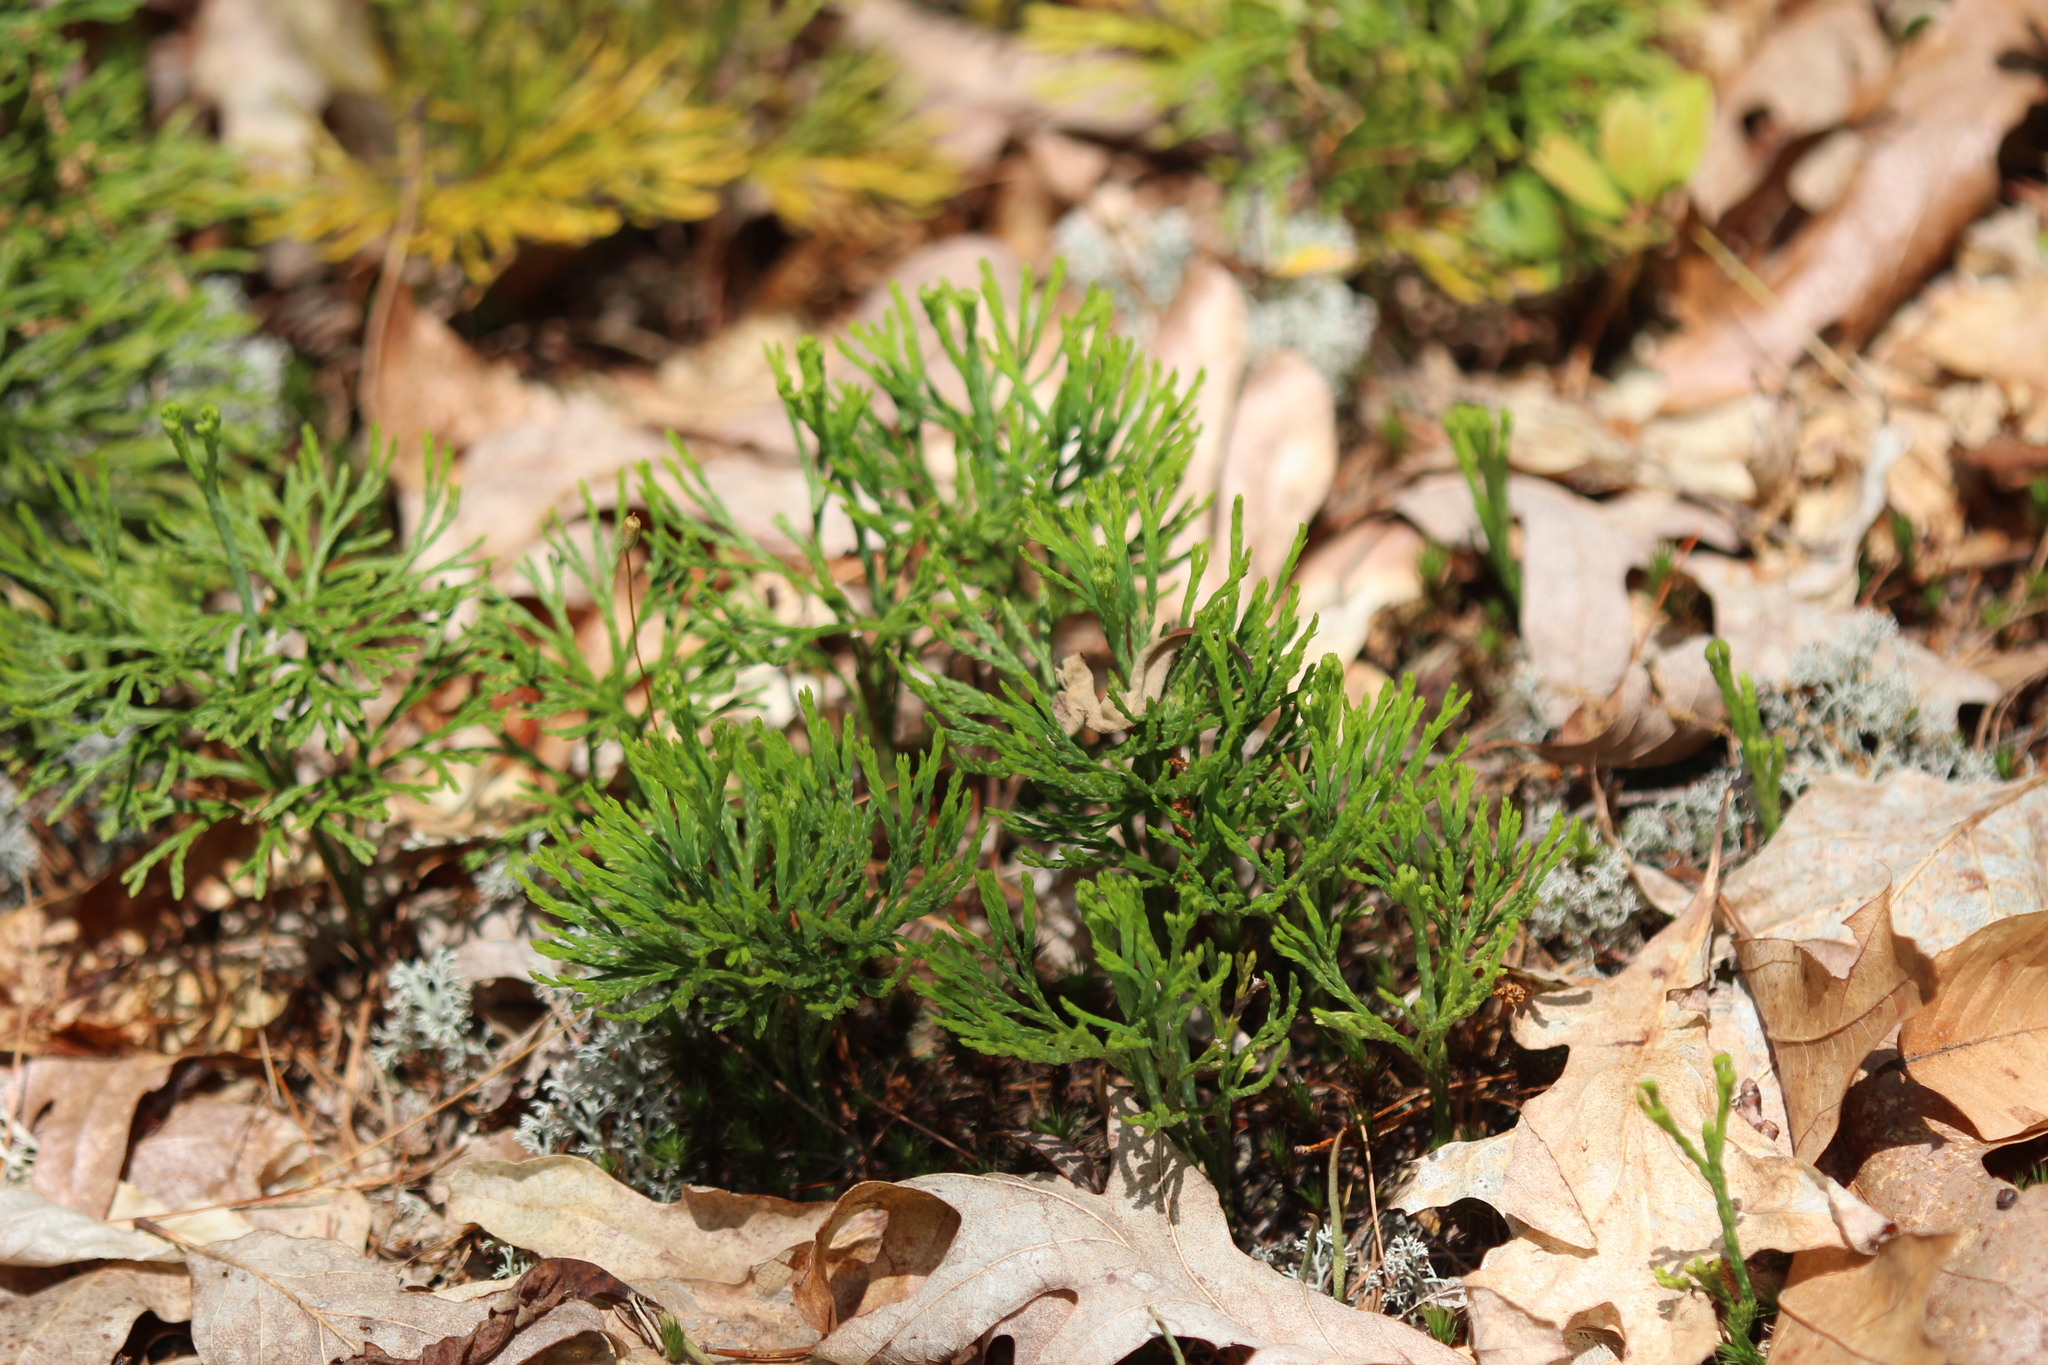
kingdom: Plantae
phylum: Tracheophyta
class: Lycopodiopsida
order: Lycopodiales
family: Lycopodiaceae
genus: Diphasiastrum
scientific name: Diphasiastrum tristachyum
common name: Blue ground-cedar
